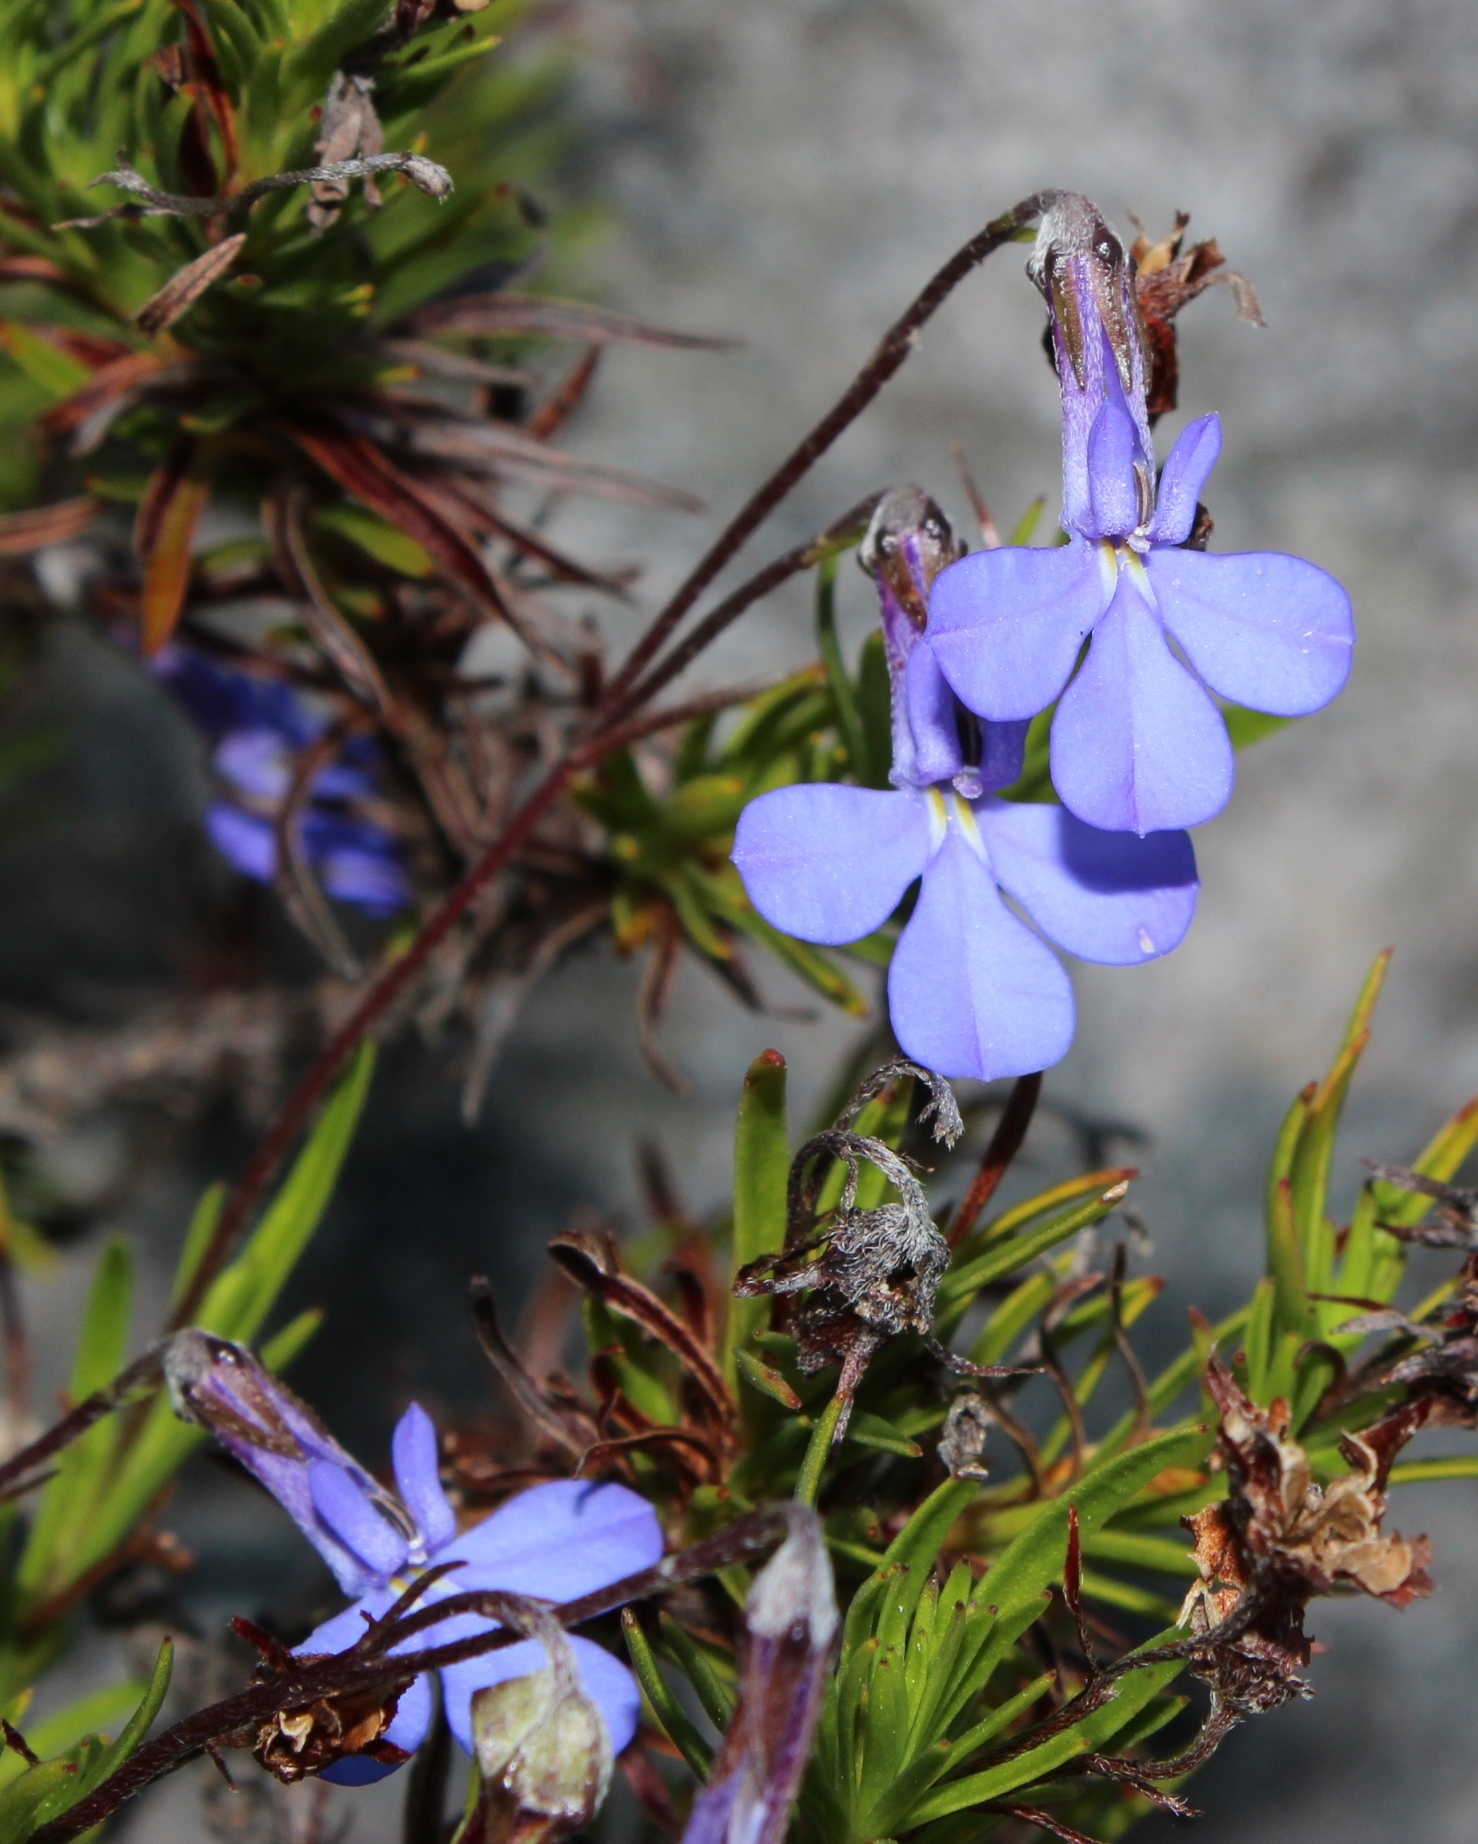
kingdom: Plantae
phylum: Tracheophyta
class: Magnoliopsida
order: Asterales
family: Campanulaceae
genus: Lobelia
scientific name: Lobelia pinifolia
